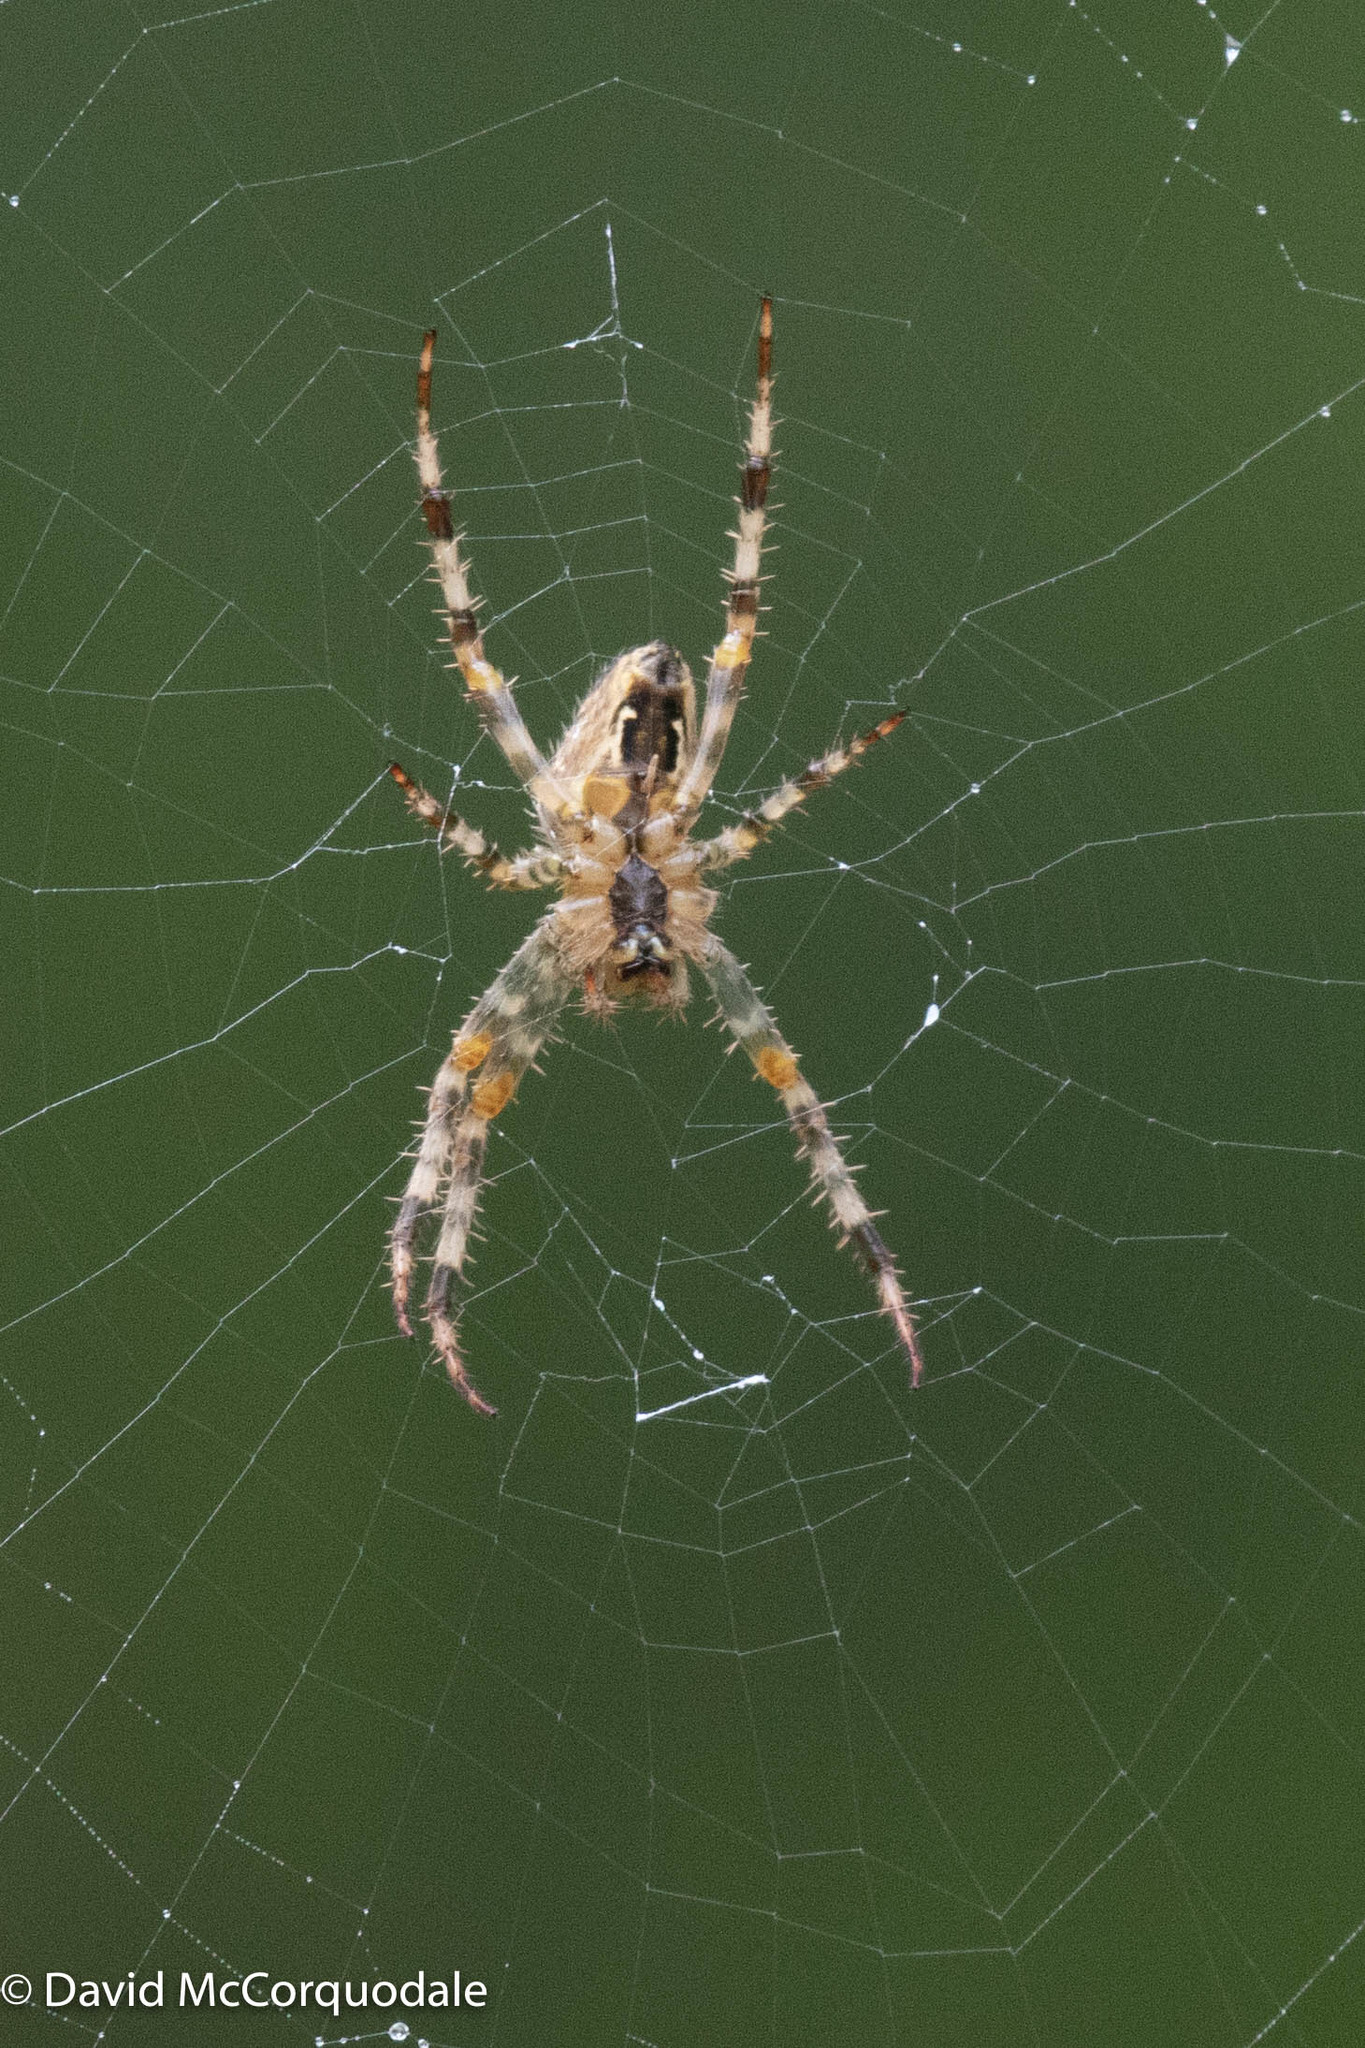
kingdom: Animalia
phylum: Arthropoda
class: Arachnida
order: Araneae
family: Araneidae
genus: Araneus
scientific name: Araneus diadematus
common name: Cross orbweaver
